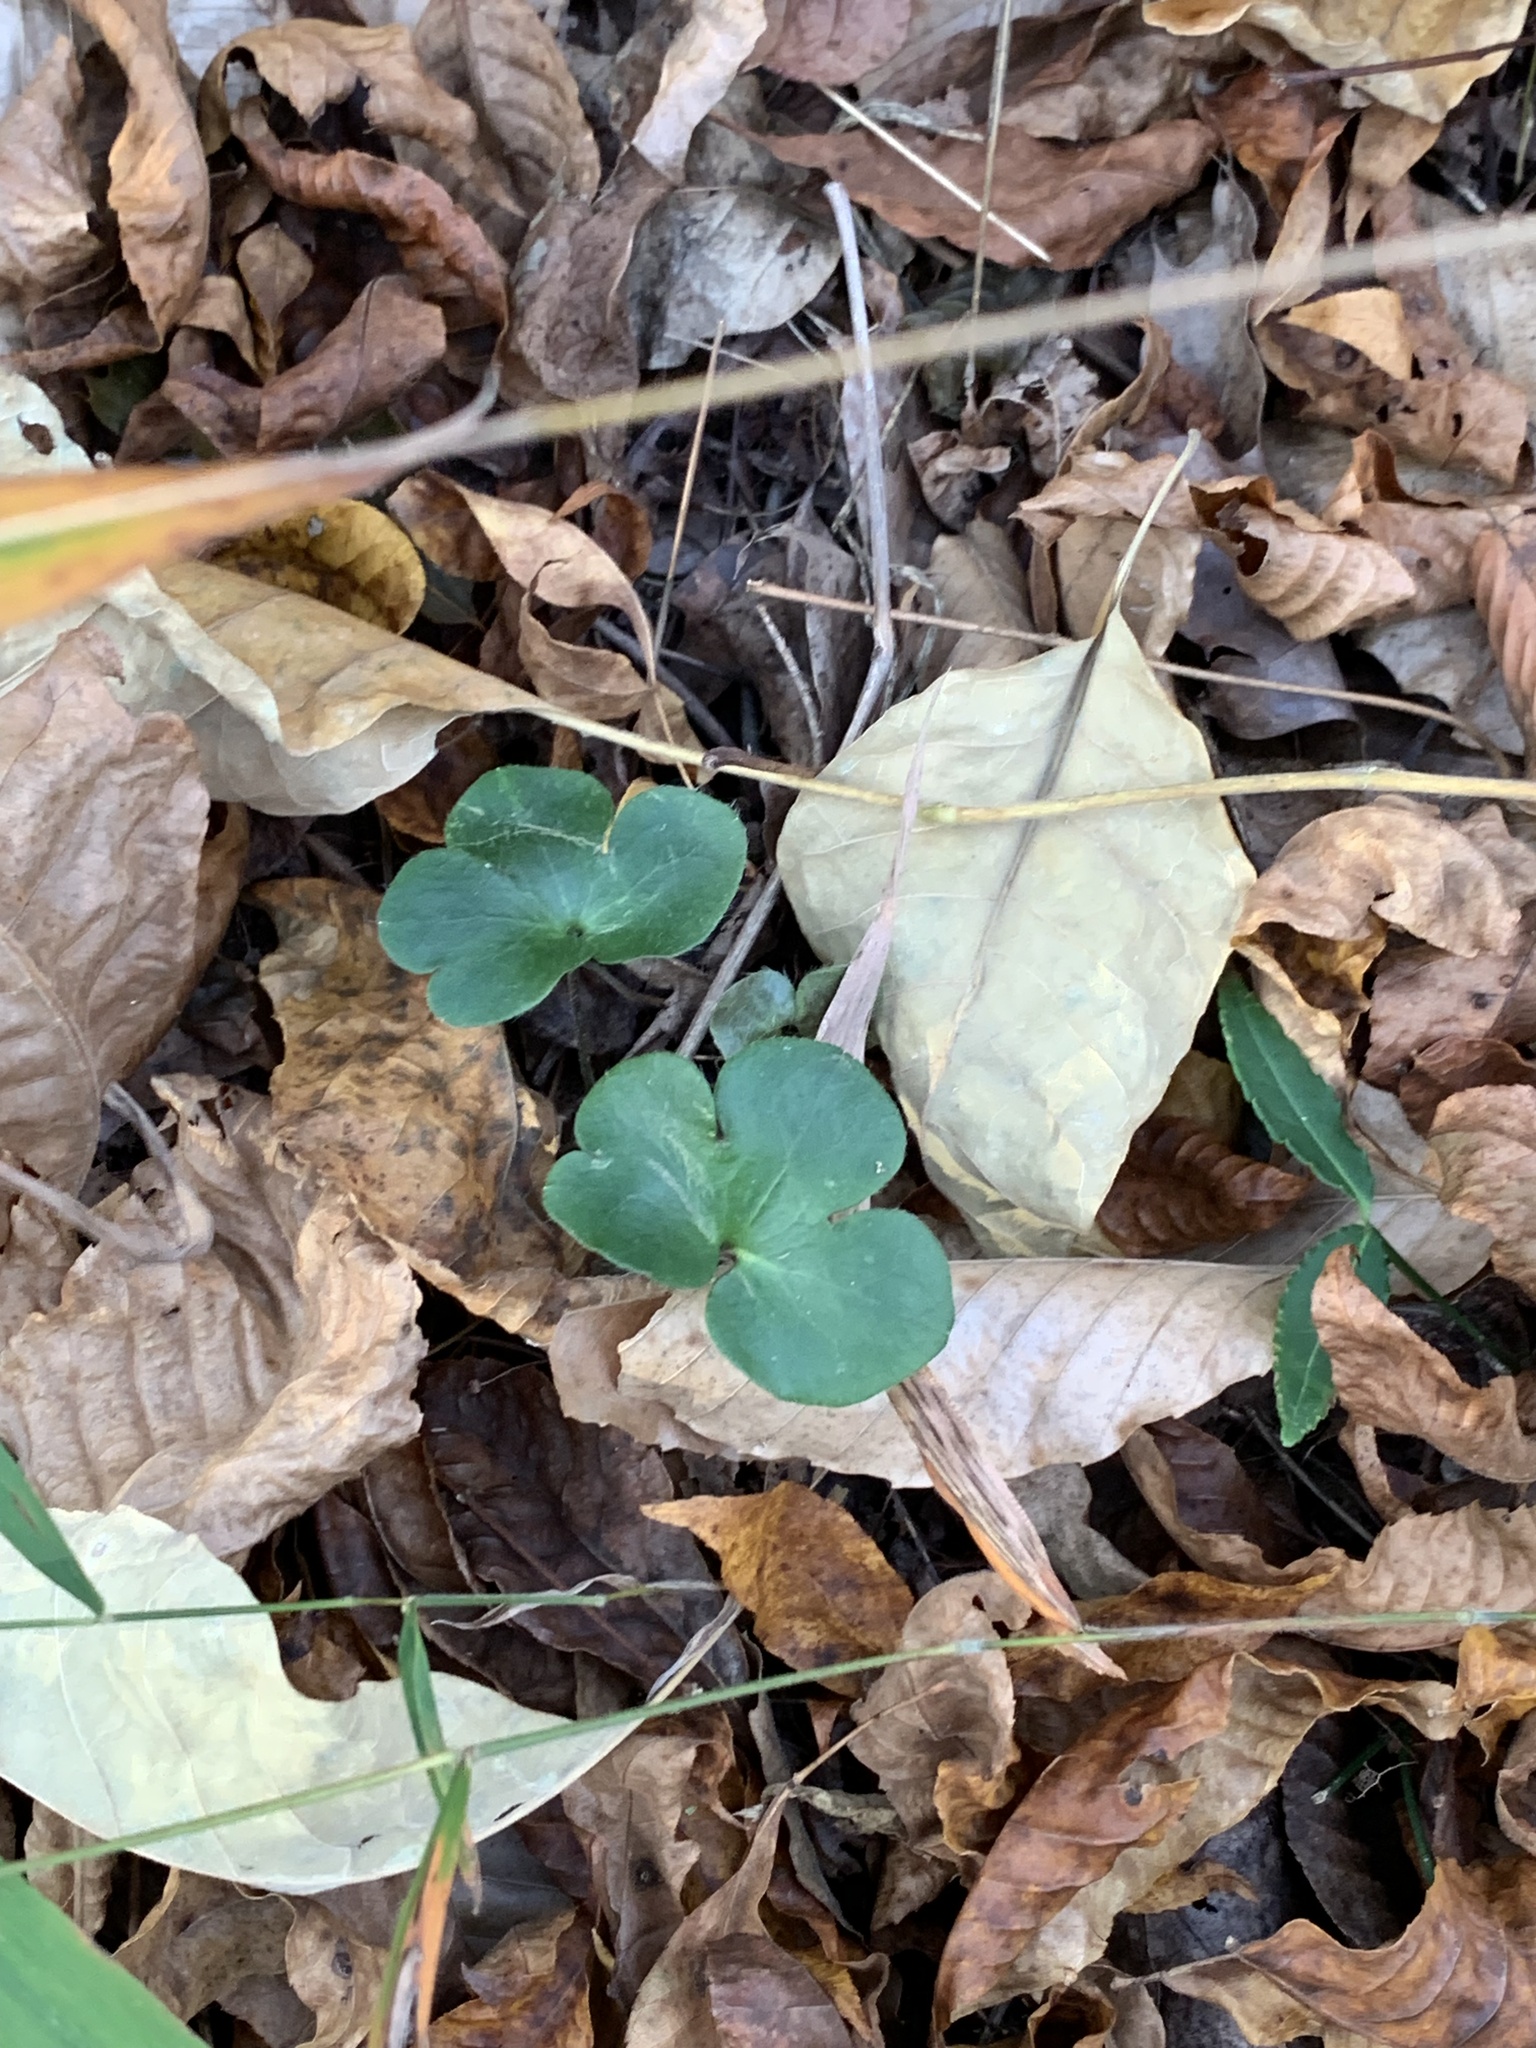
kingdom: Plantae
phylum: Tracheophyta
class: Magnoliopsida
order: Ranunculales
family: Ranunculaceae
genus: Hepatica
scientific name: Hepatica americana
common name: American hepatica
